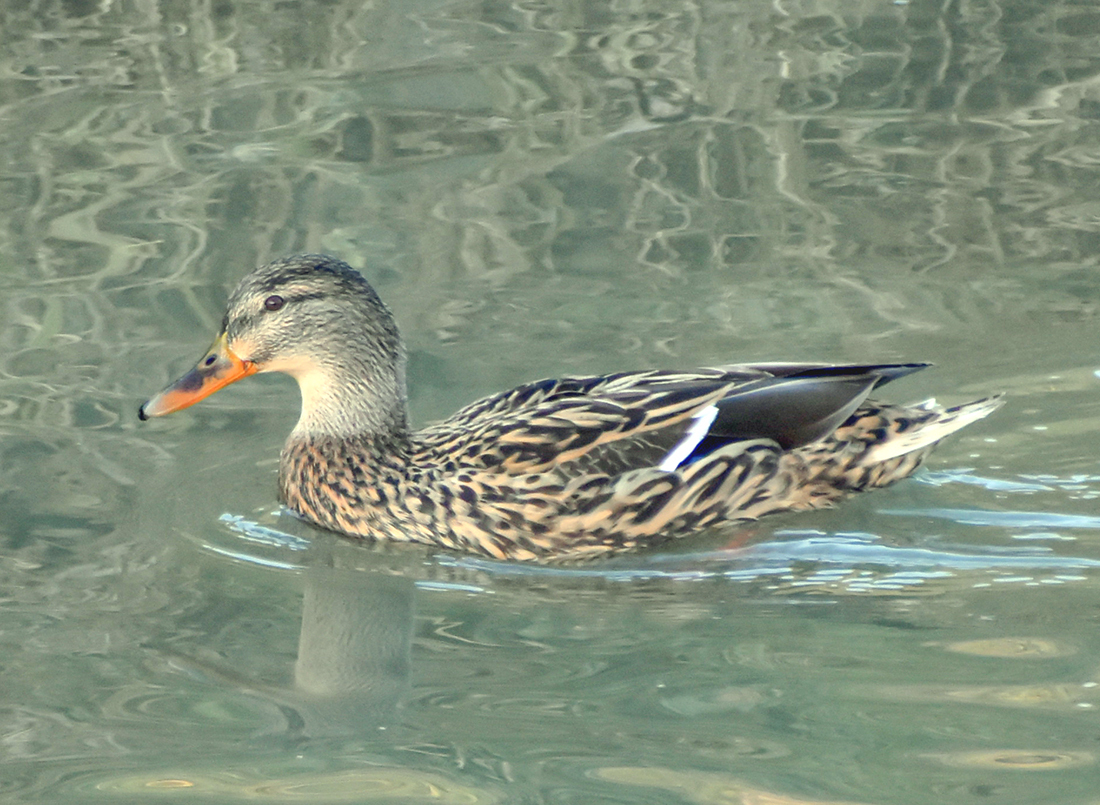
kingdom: Animalia
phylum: Chordata
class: Aves
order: Anseriformes
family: Anatidae
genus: Anas
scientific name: Anas platyrhynchos
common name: Mallard
